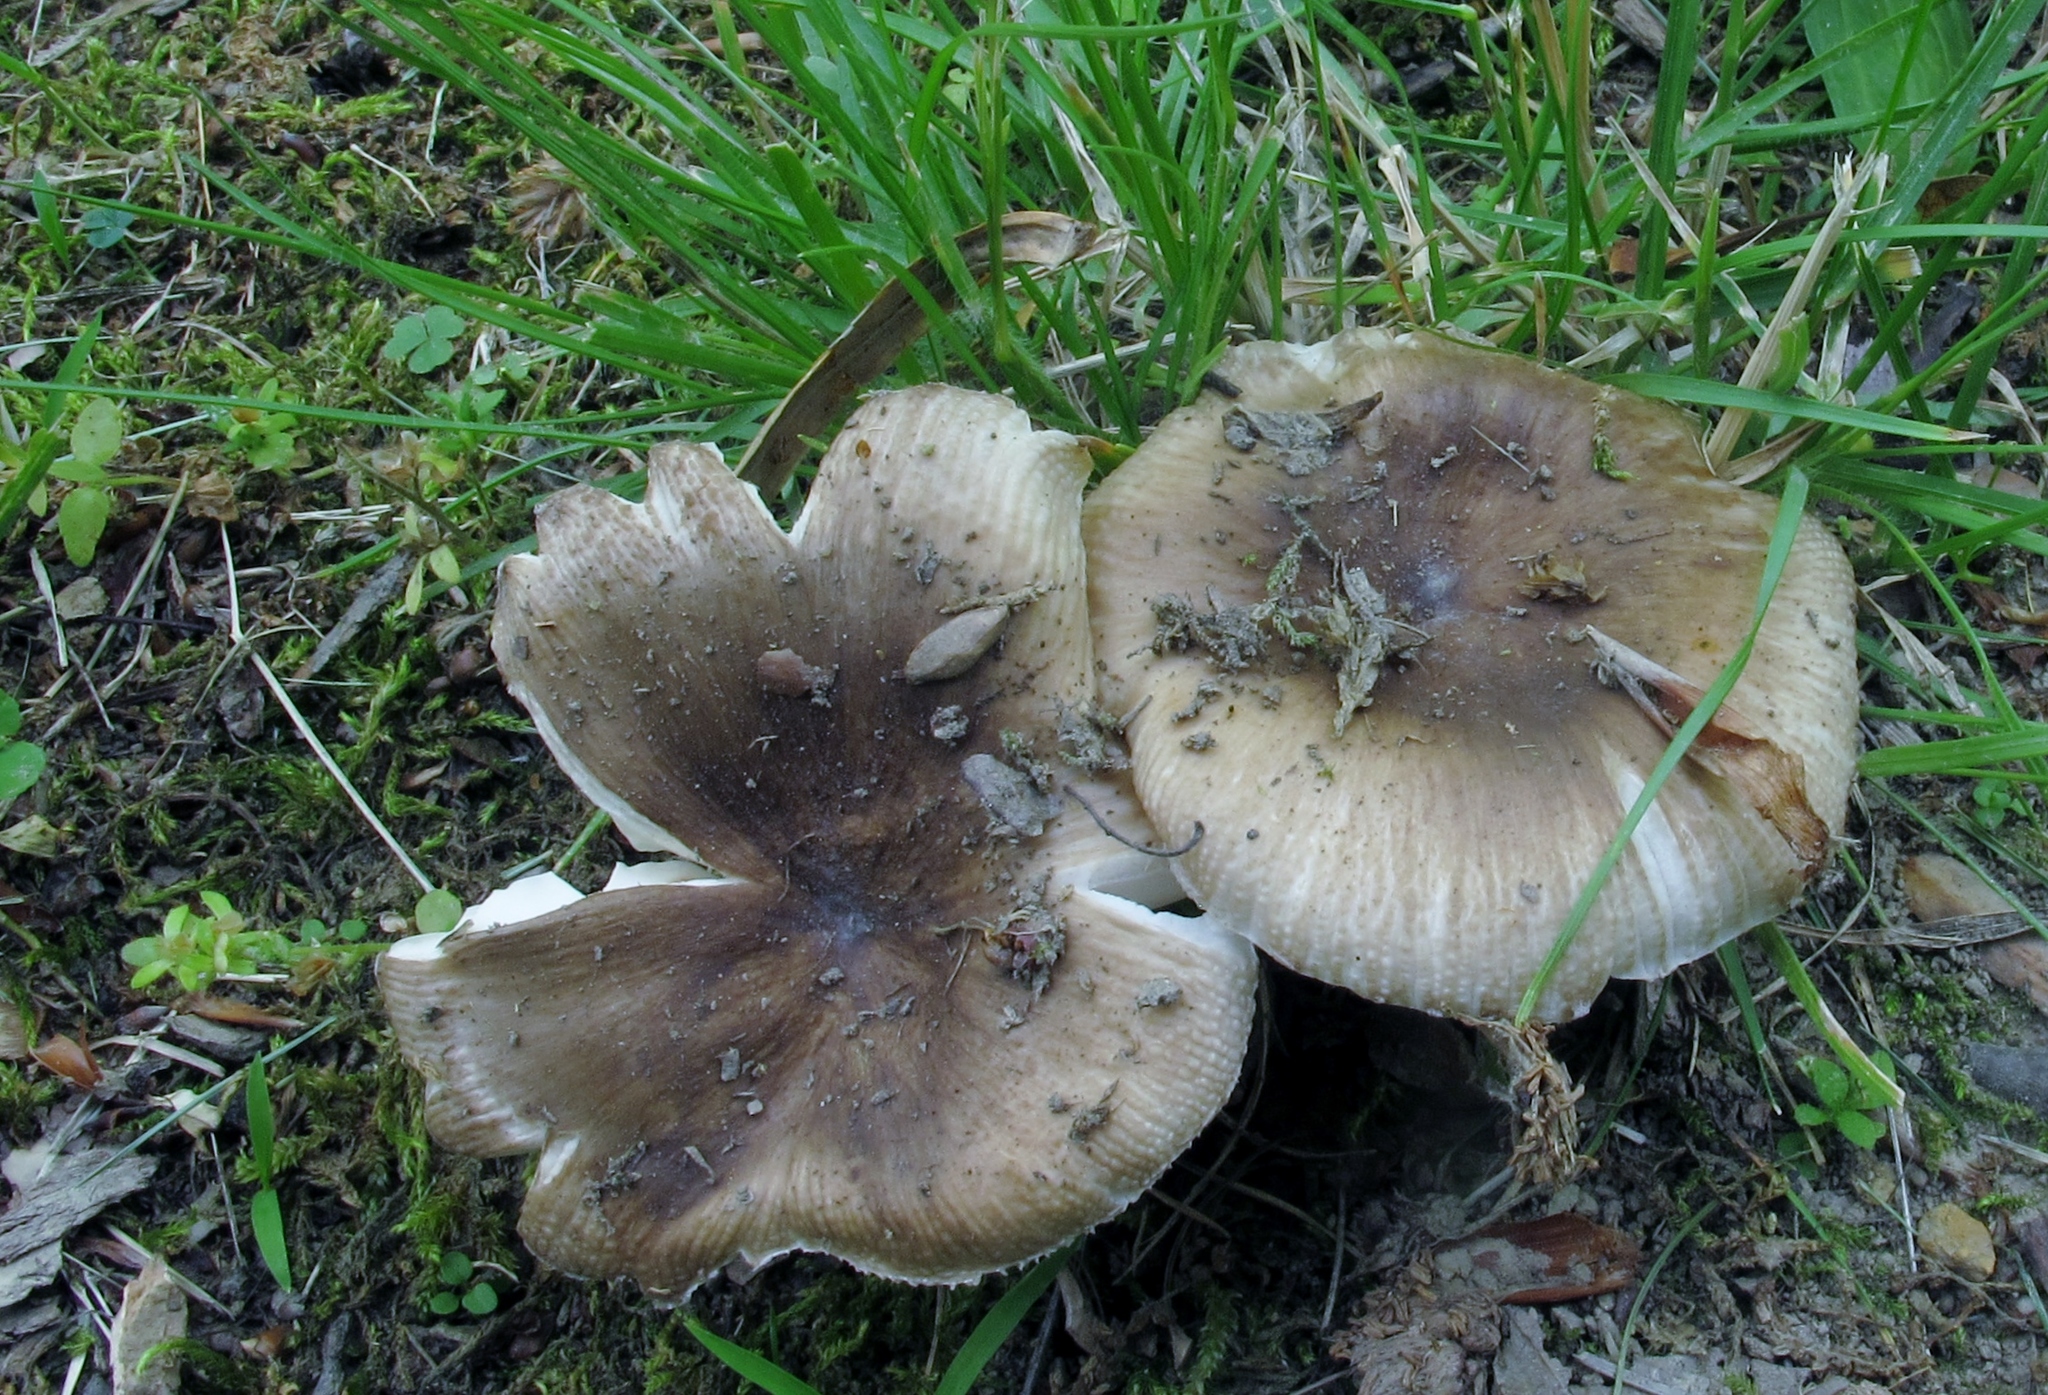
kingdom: Fungi
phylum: Basidiomycota
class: Agaricomycetes
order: Russulales
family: Russulaceae
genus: Russula
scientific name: Russula amoenolens
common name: Camembert brittlegill
